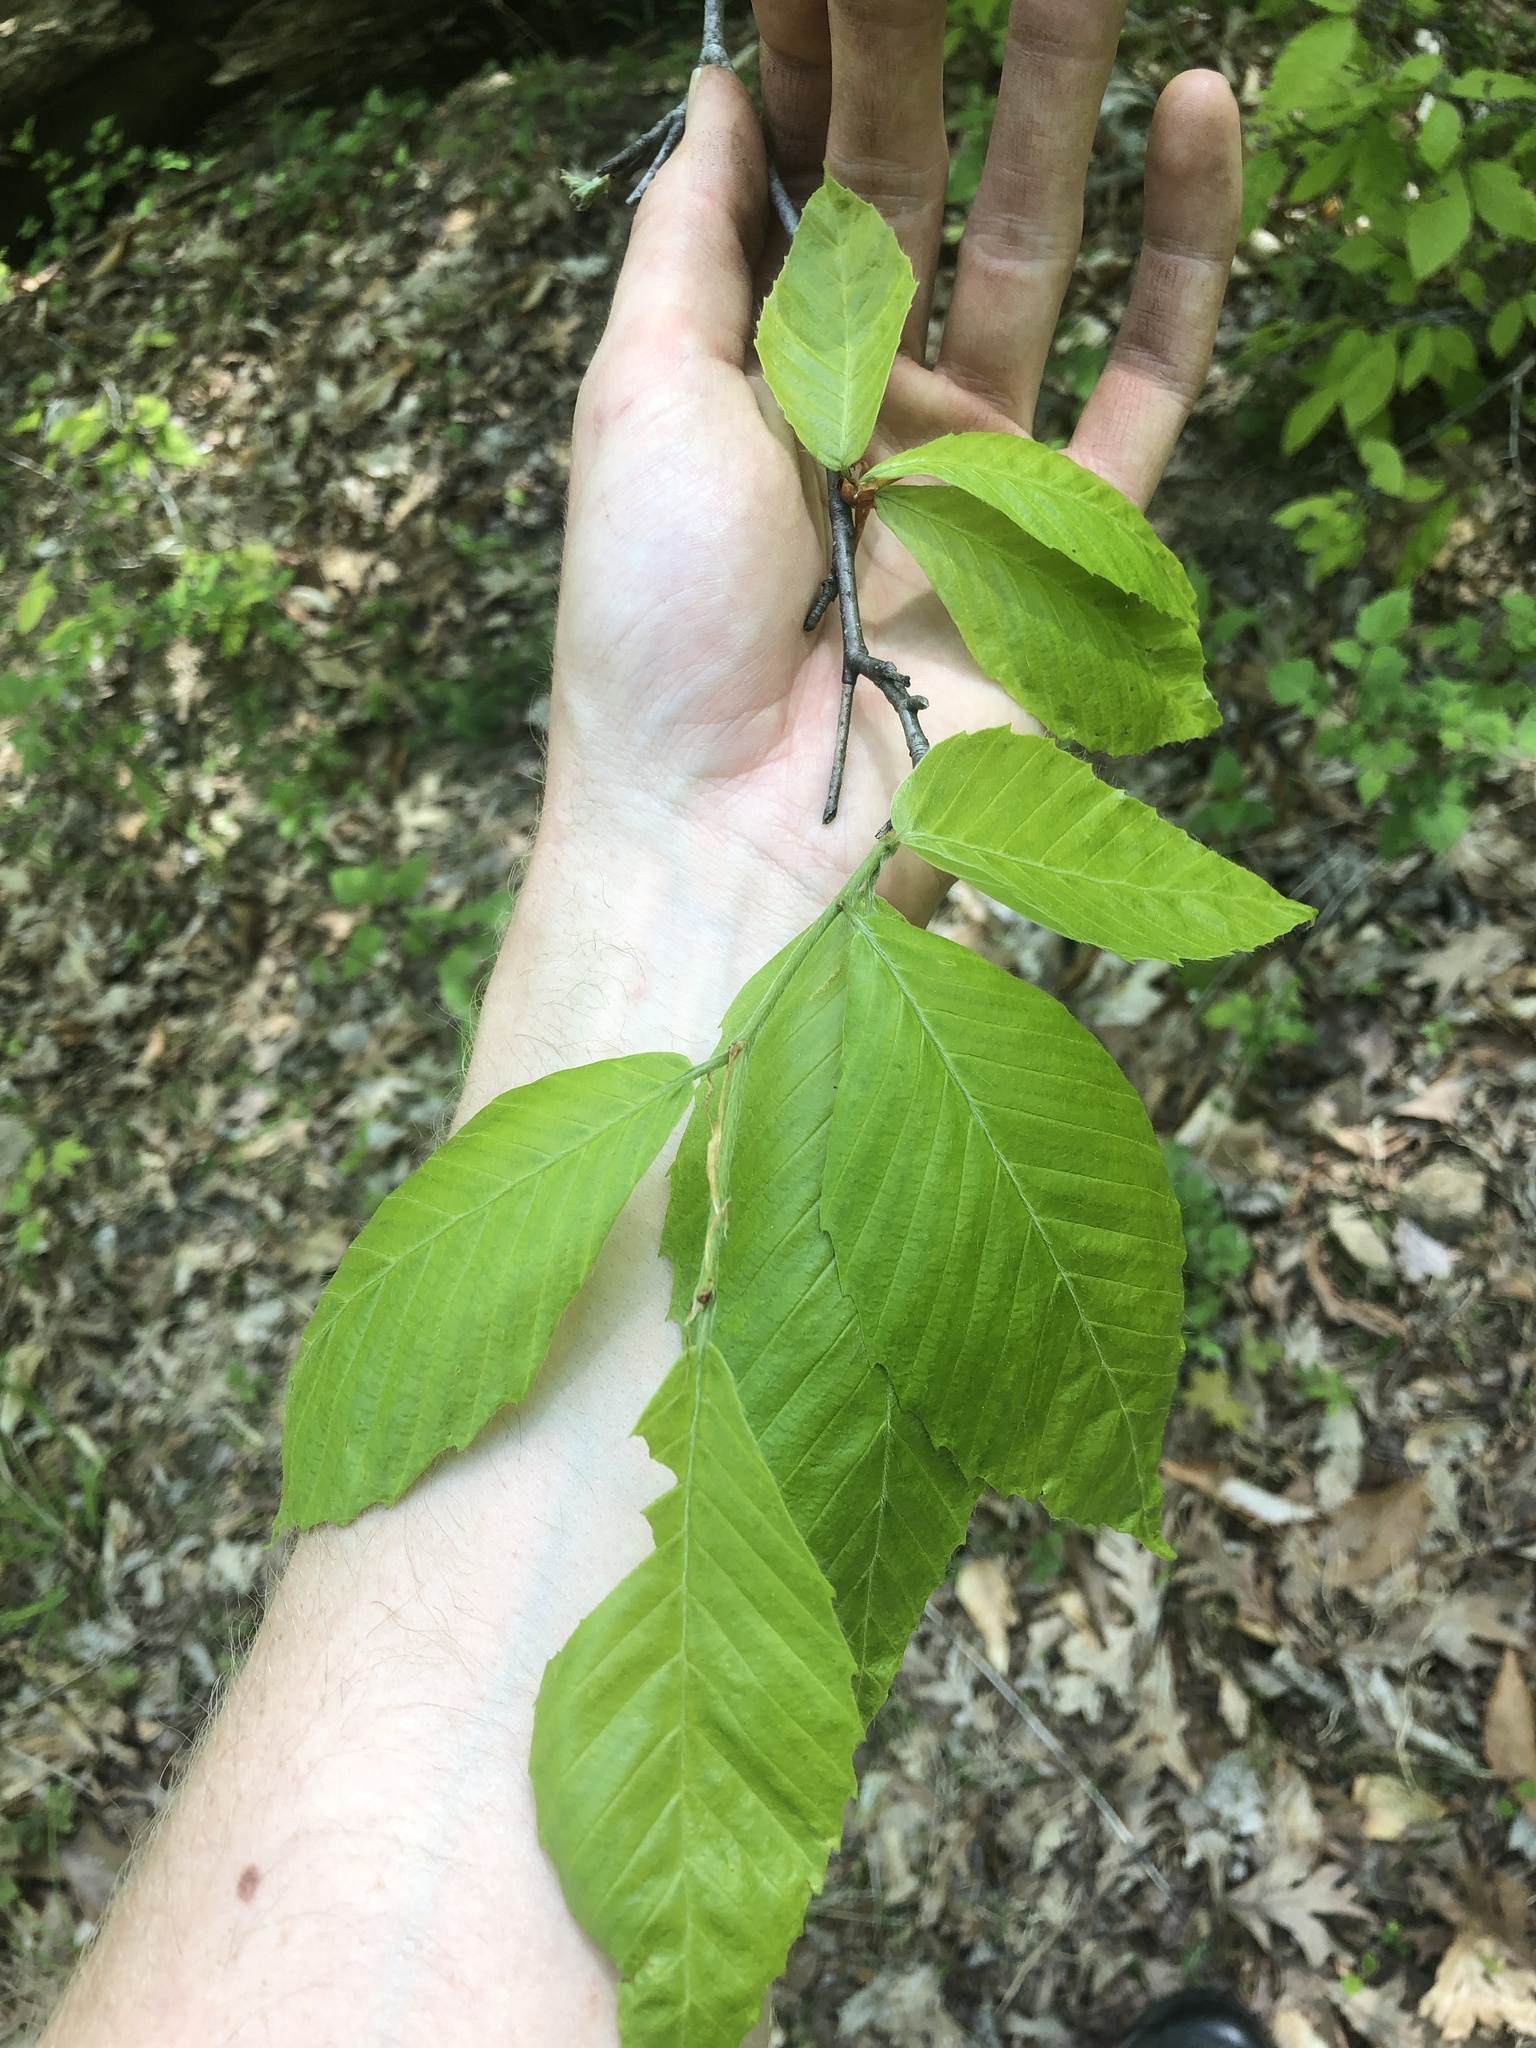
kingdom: Plantae
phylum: Tracheophyta
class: Magnoliopsida
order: Fagales
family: Fagaceae
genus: Fagus
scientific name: Fagus grandifolia
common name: American beech
